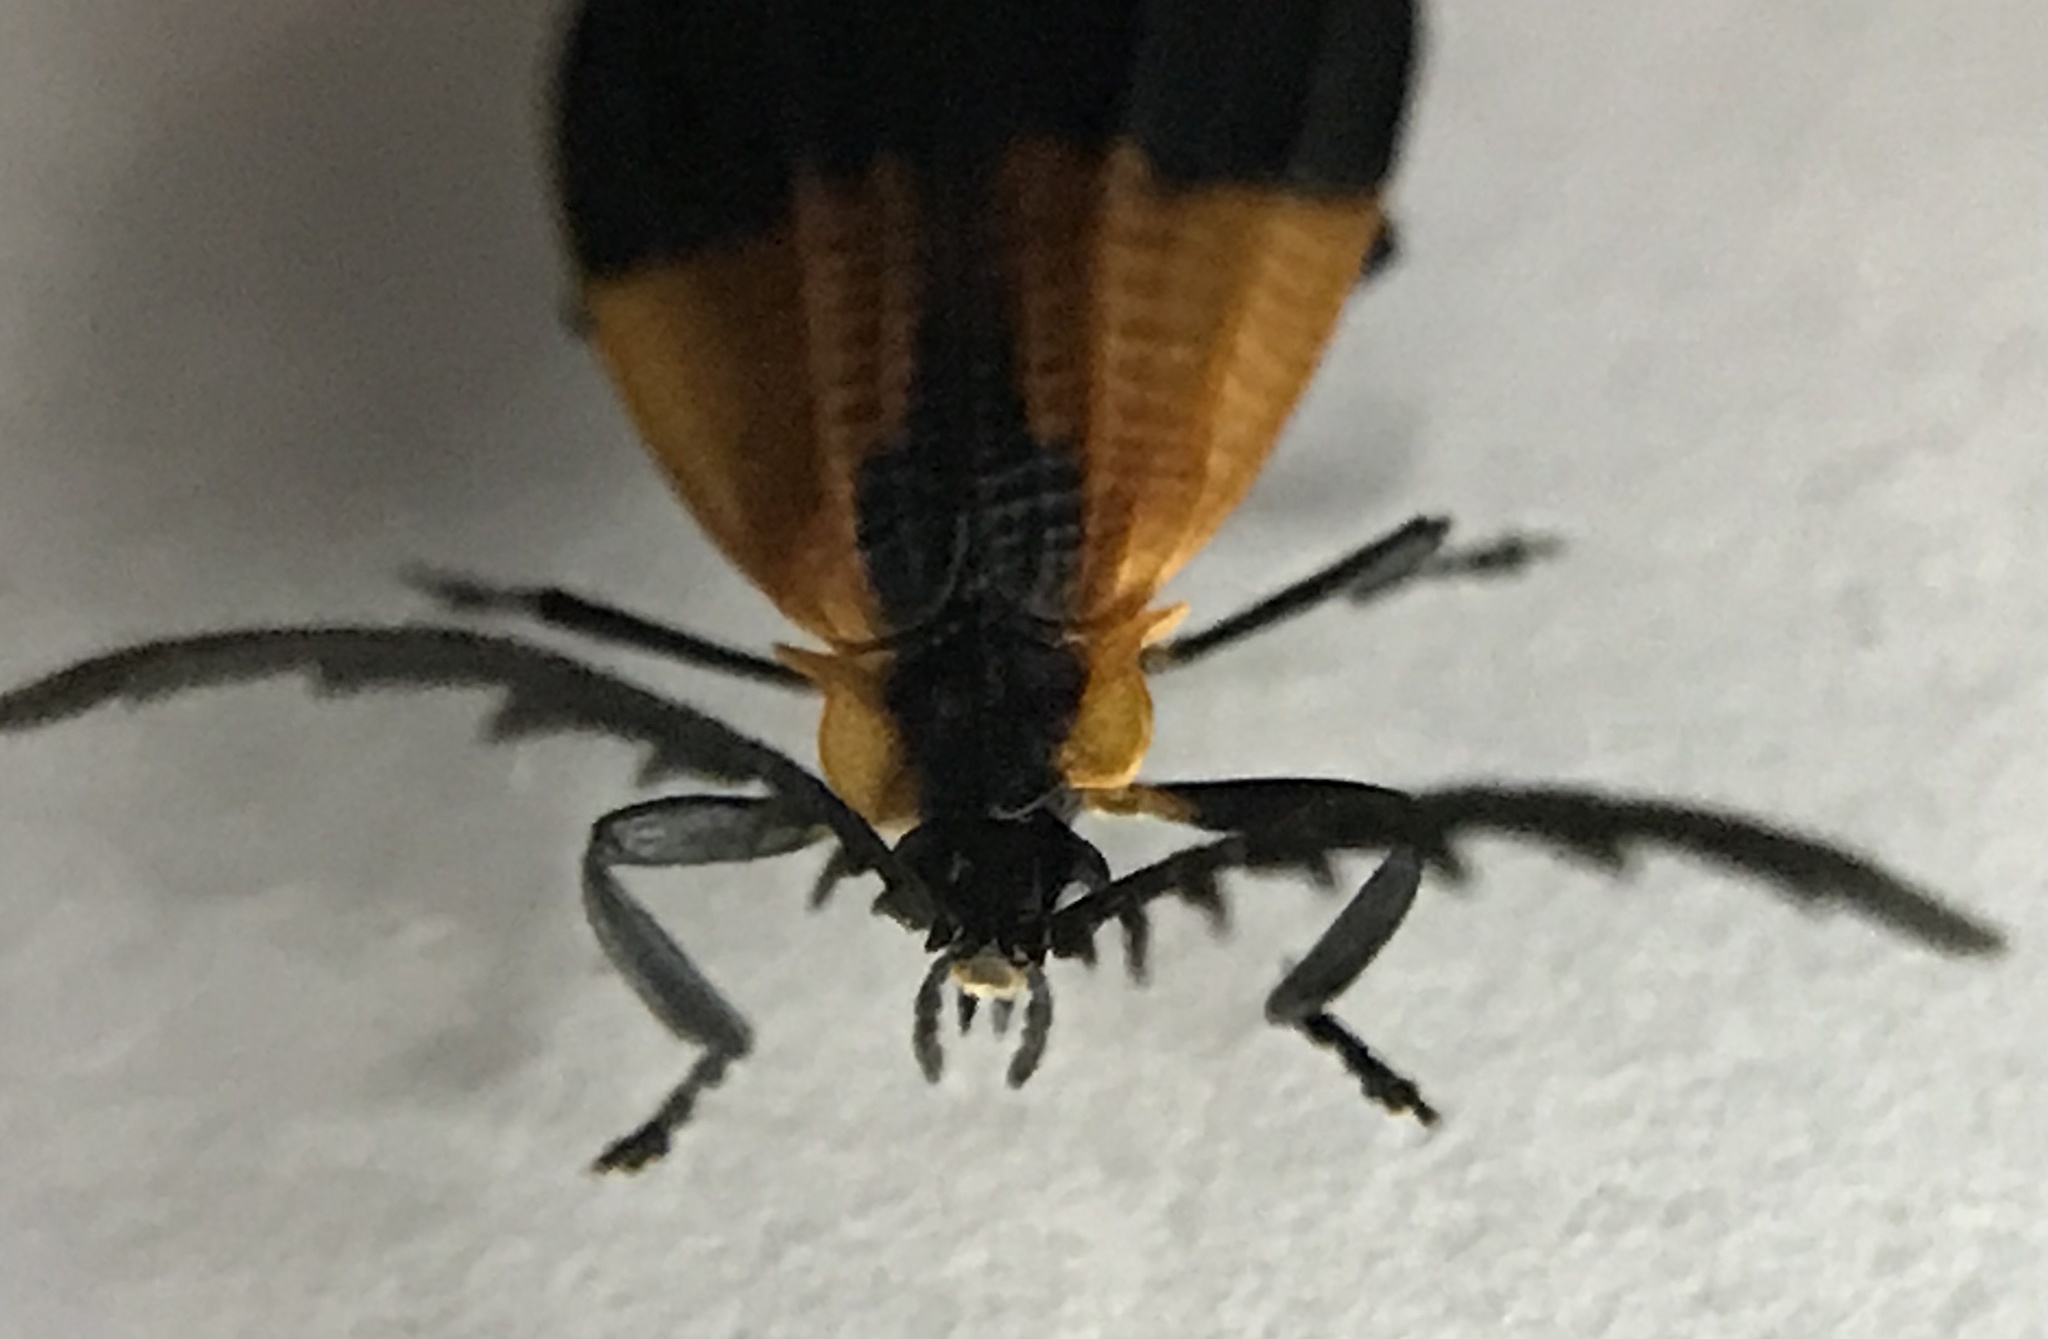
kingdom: Animalia
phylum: Arthropoda
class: Insecta
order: Coleoptera
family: Lycidae
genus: Caenia
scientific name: Caenia dimidiata
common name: Terminal net-winged beetle
